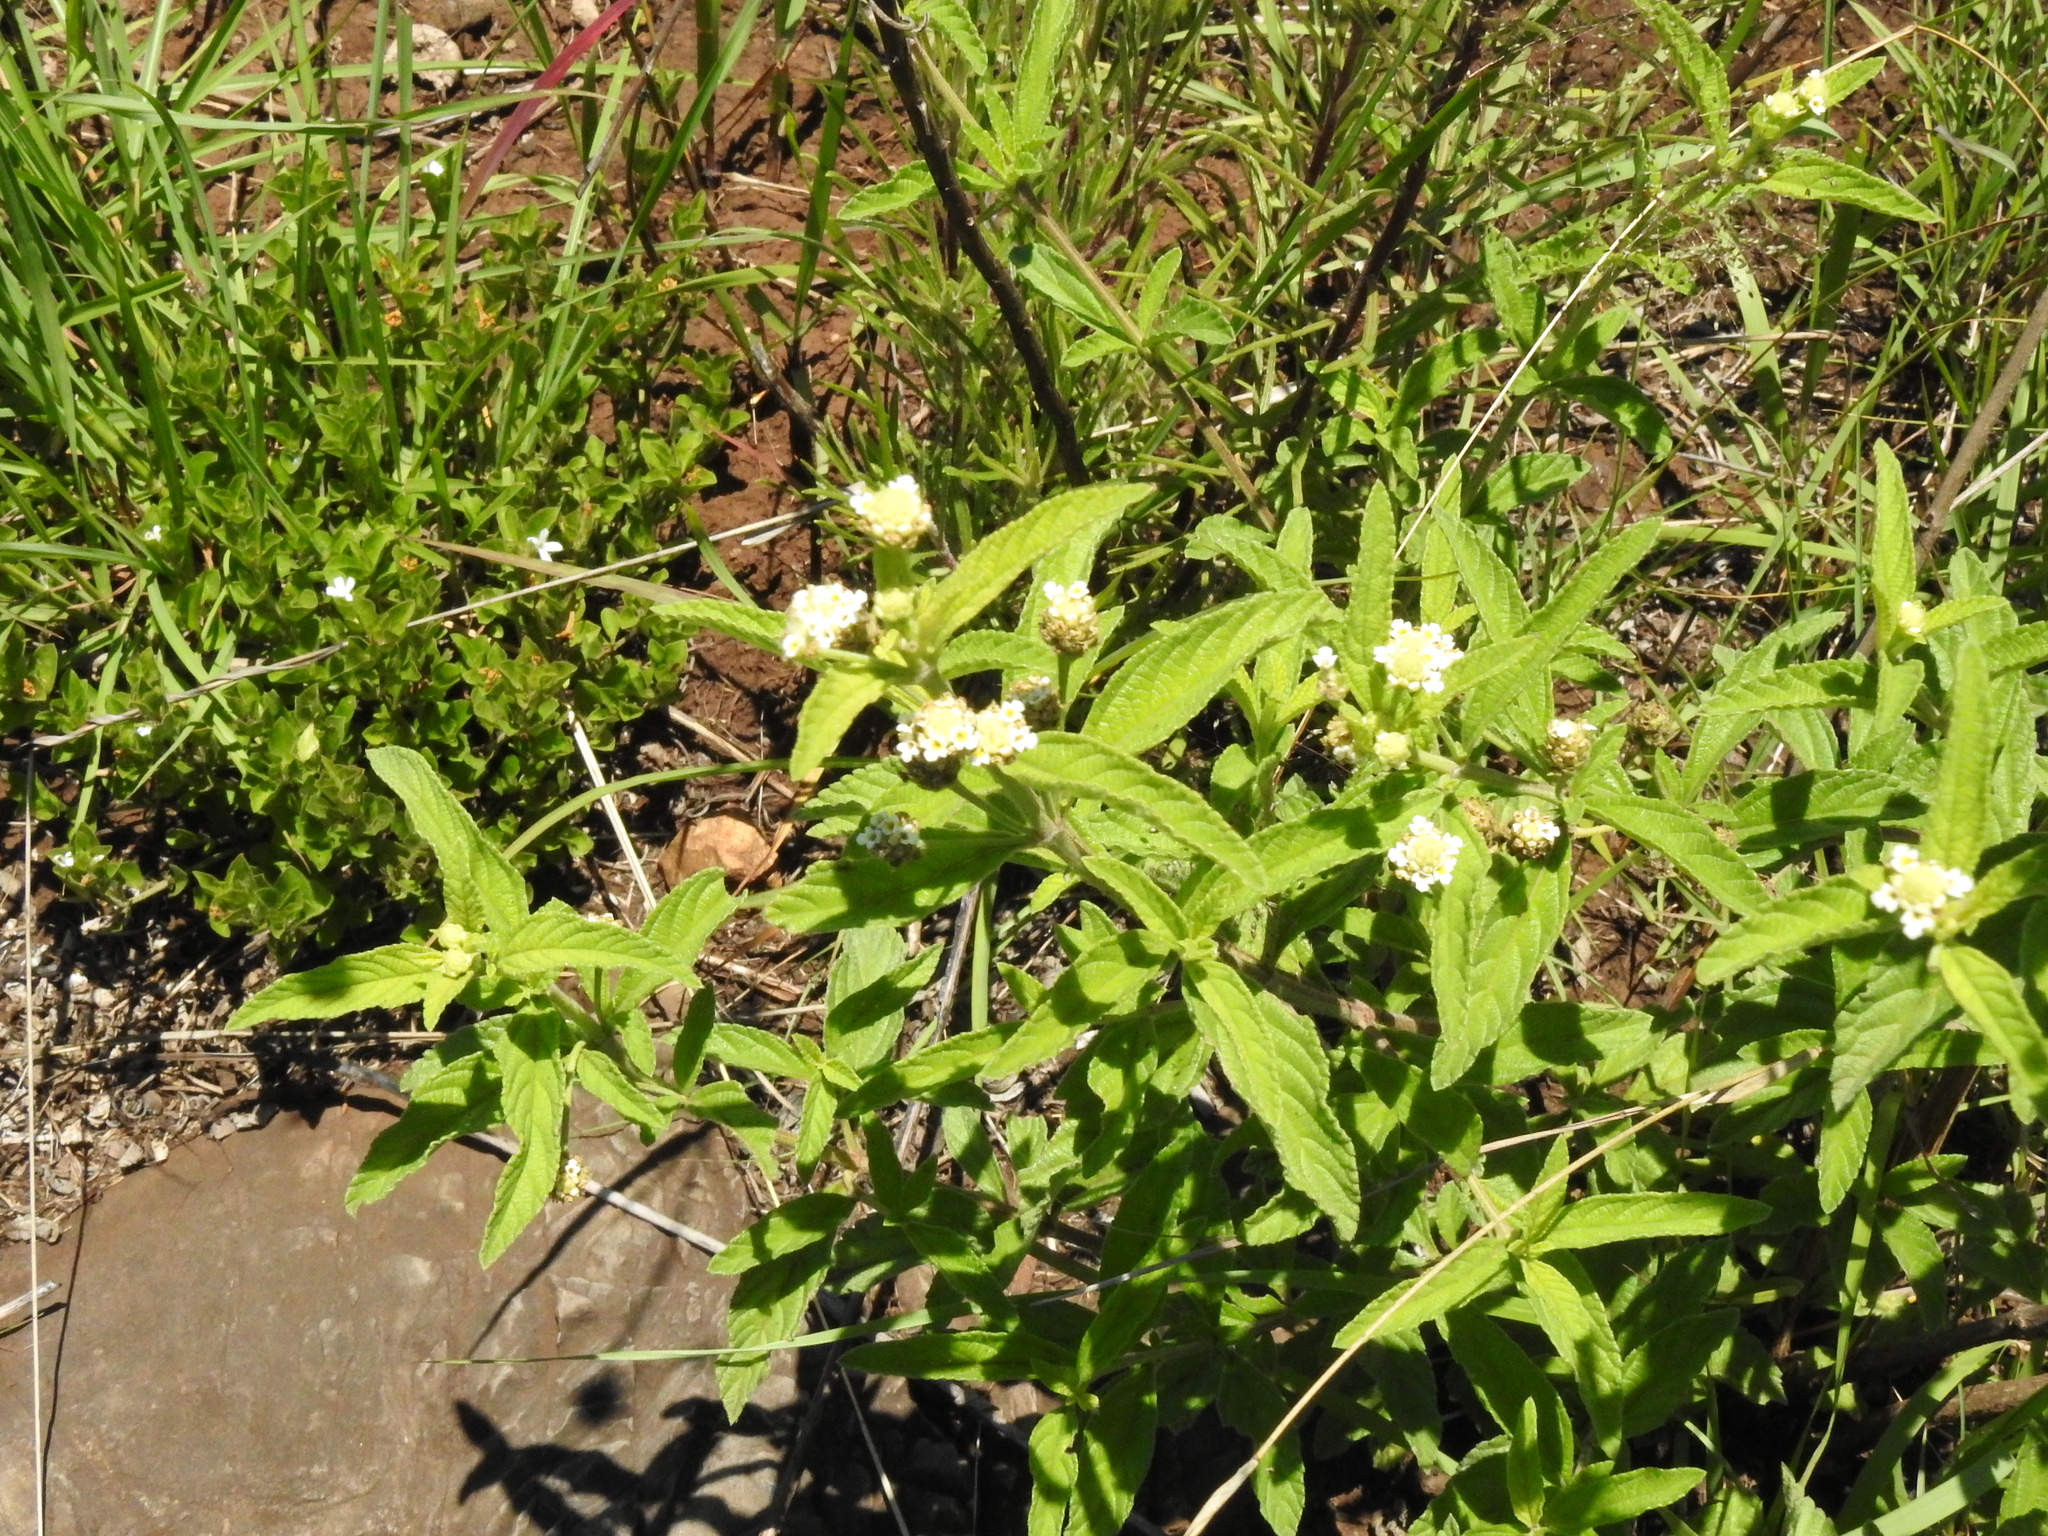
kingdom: Plantae
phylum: Tracheophyta
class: Magnoliopsida
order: Lamiales
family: Verbenaceae
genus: Lippia
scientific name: Lippia javanica
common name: Lemonbush
